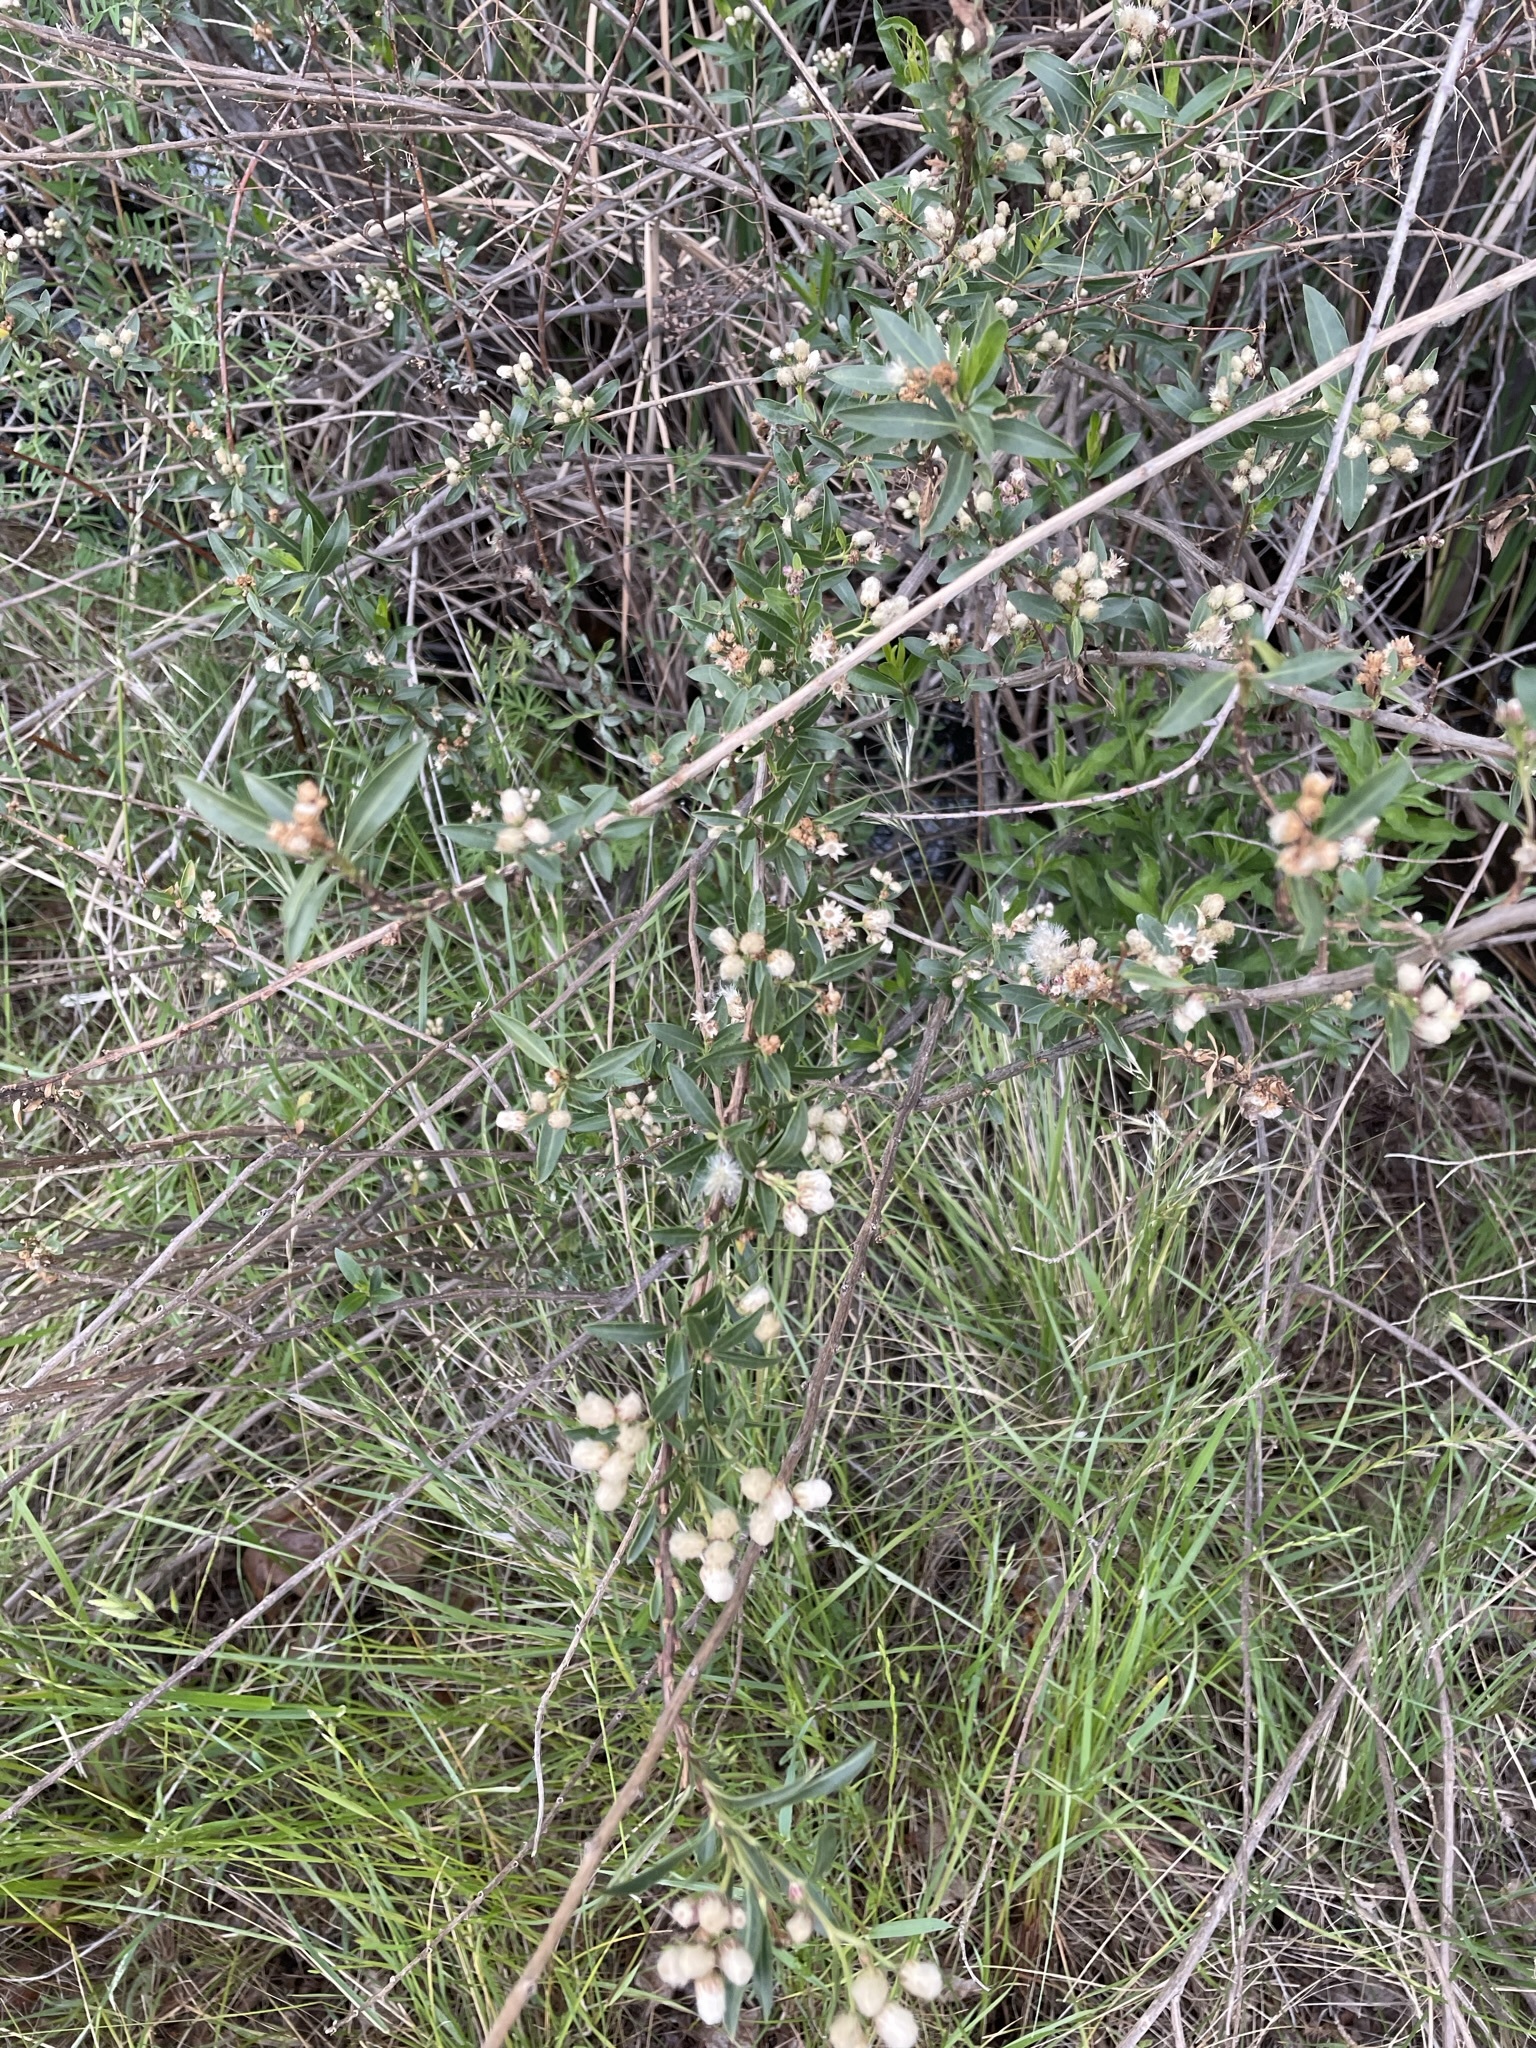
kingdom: Plantae
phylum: Tracheophyta
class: Magnoliopsida
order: Asterales
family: Asteraceae
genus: Baccharis
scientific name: Baccharis salicifolia
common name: Sticky baccharis
